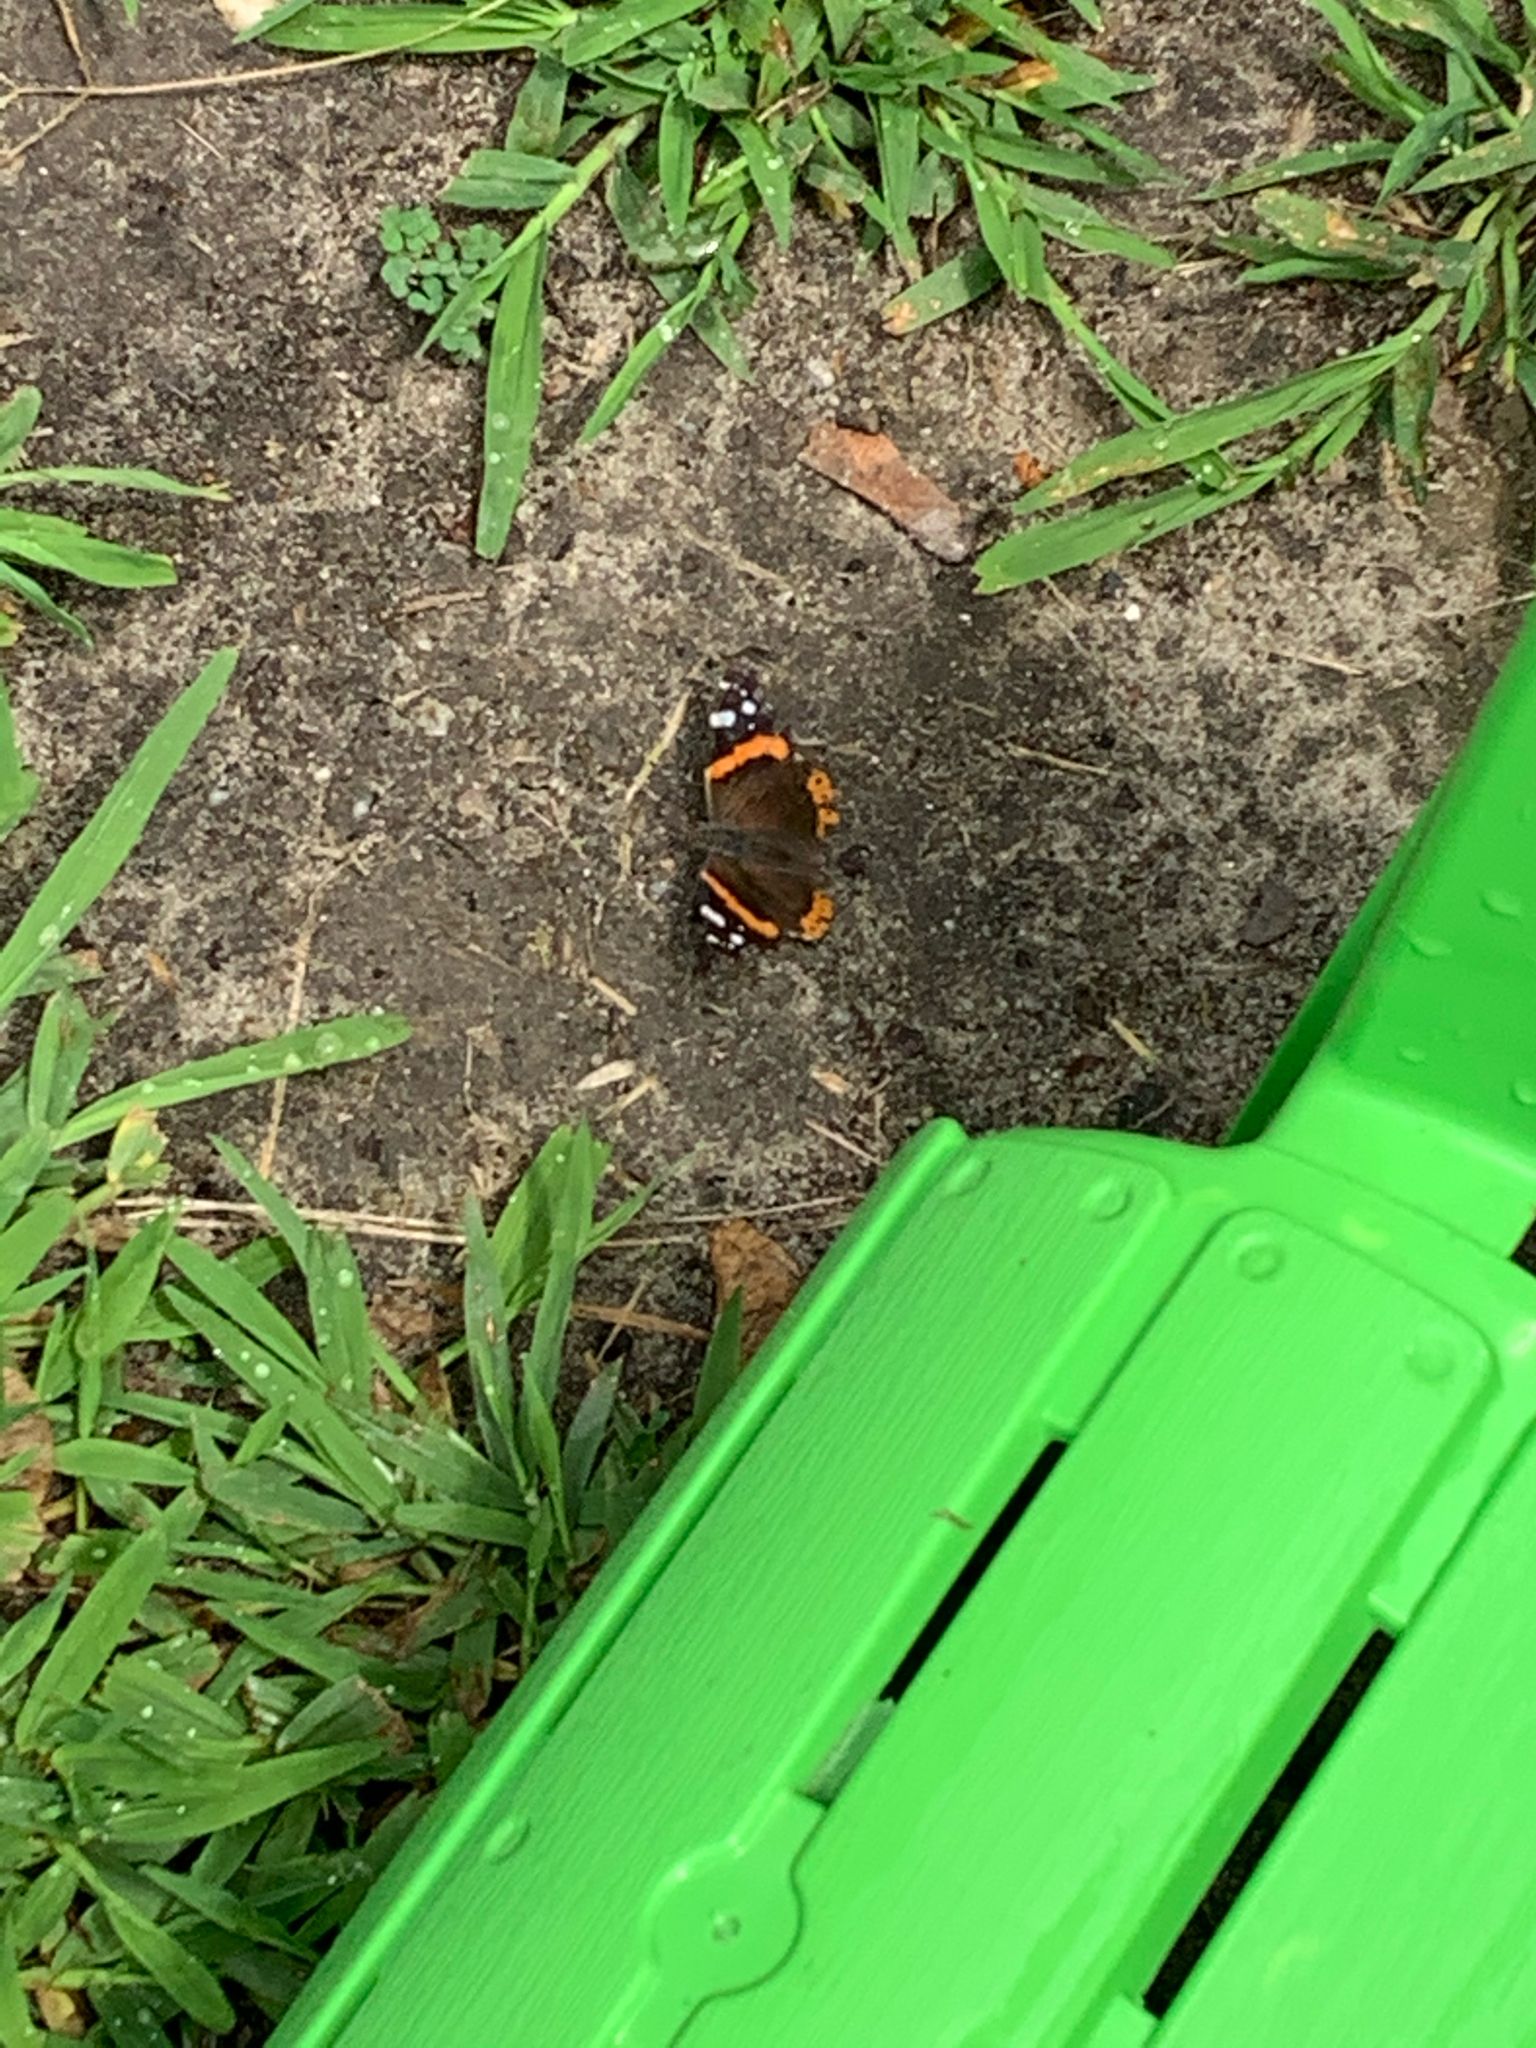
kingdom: Animalia
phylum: Arthropoda
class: Insecta
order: Lepidoptera
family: Nymphalidae
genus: Vanessa
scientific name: Vanessa atalanta
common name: Red admiral
